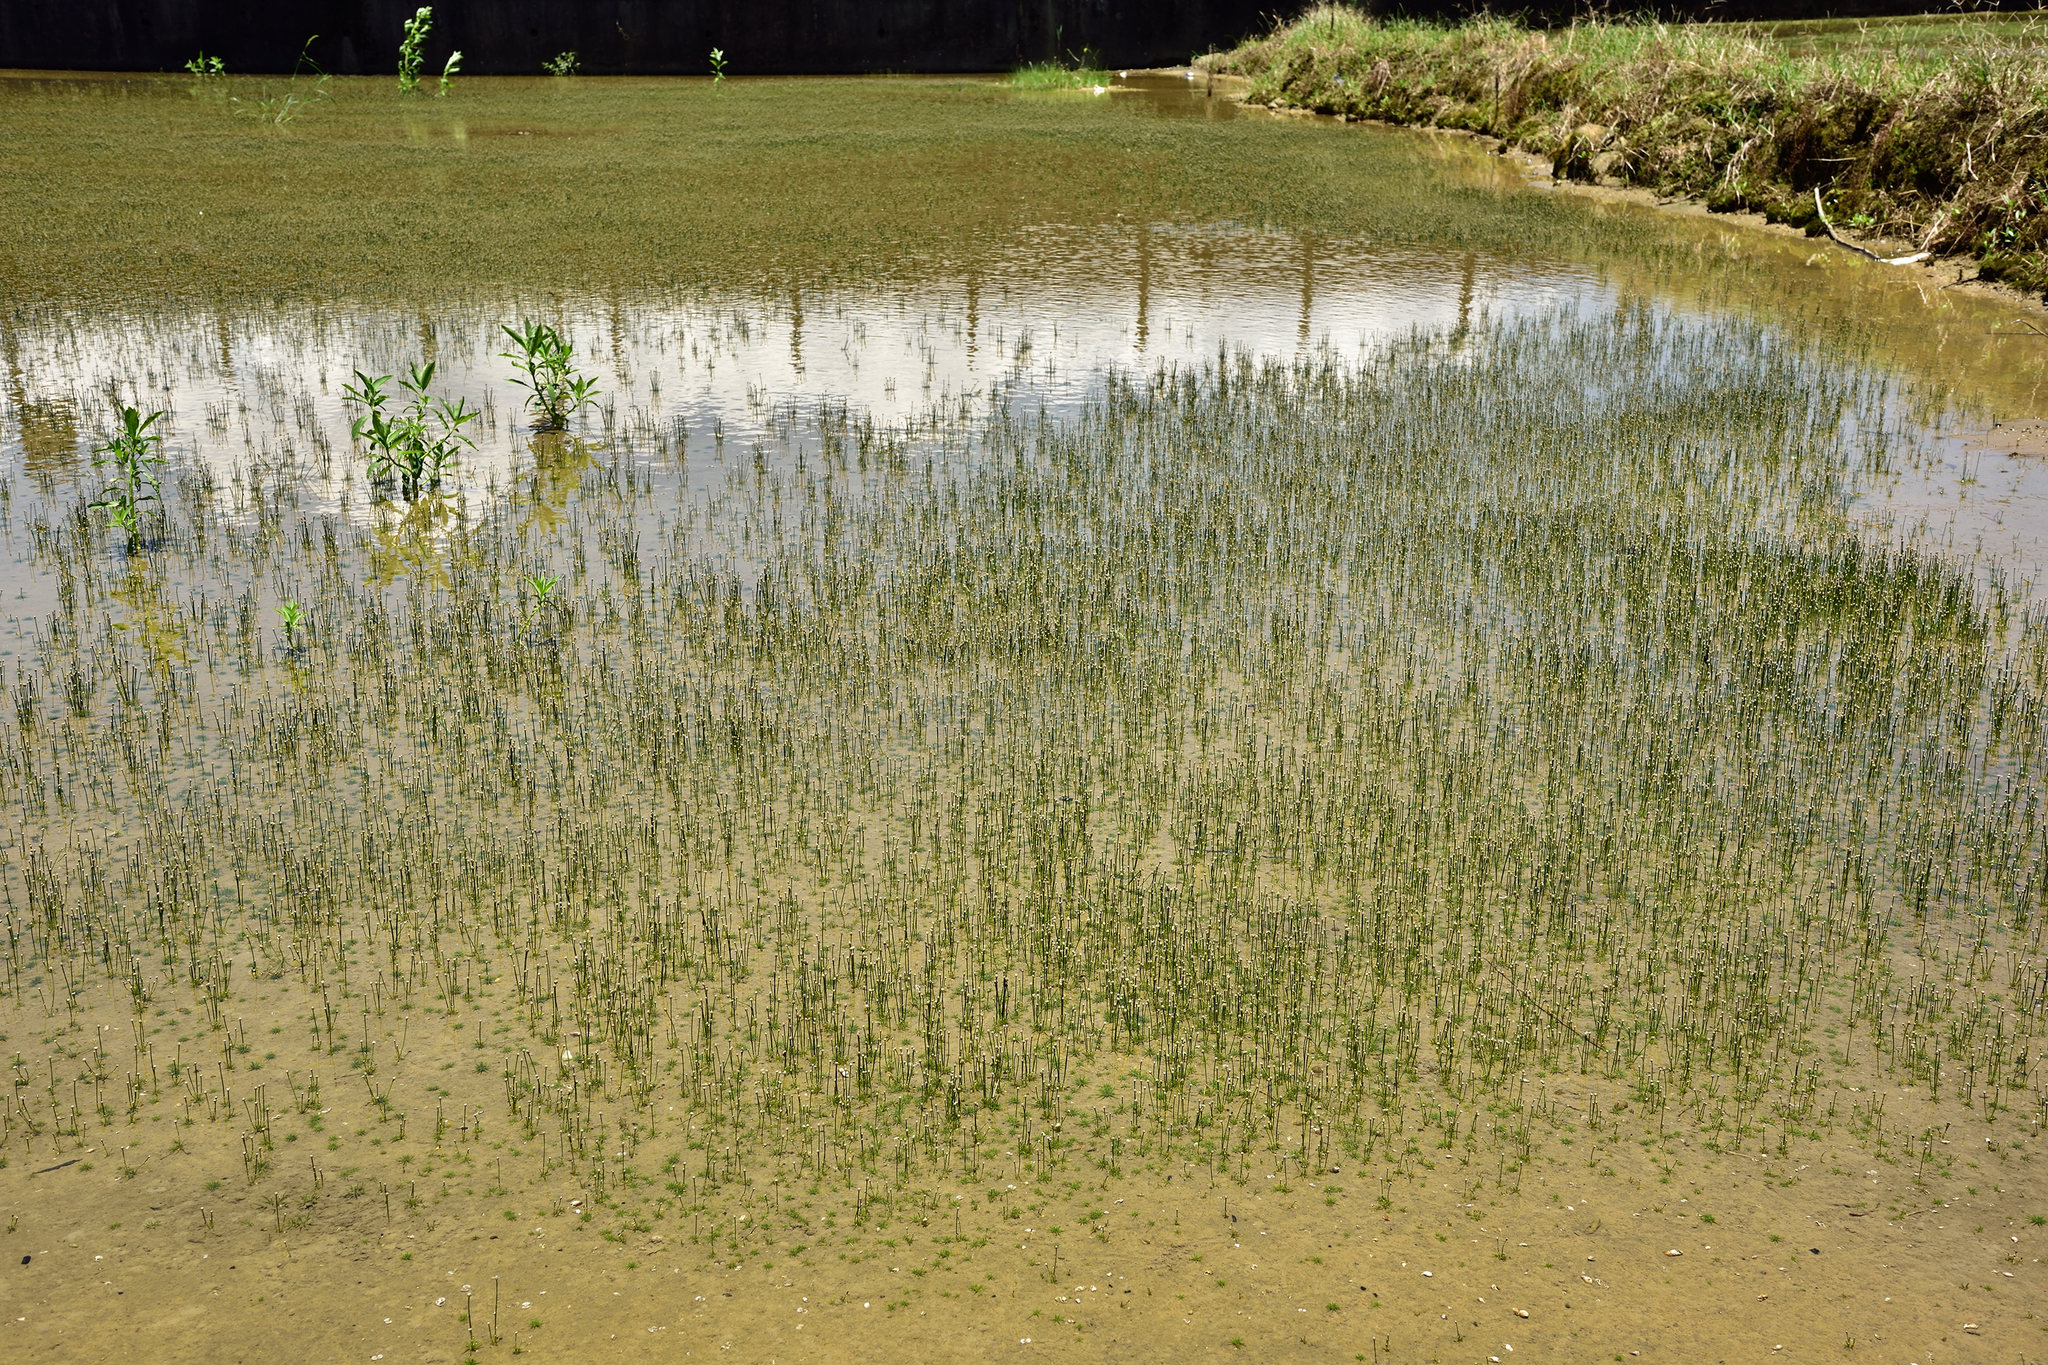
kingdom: Plantae
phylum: Tracheophyta
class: Liliopsida
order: Poales
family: Eriocaulaceae
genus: Eriocaulon
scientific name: Eriocaulon cinereum
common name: Ashy pipewort
